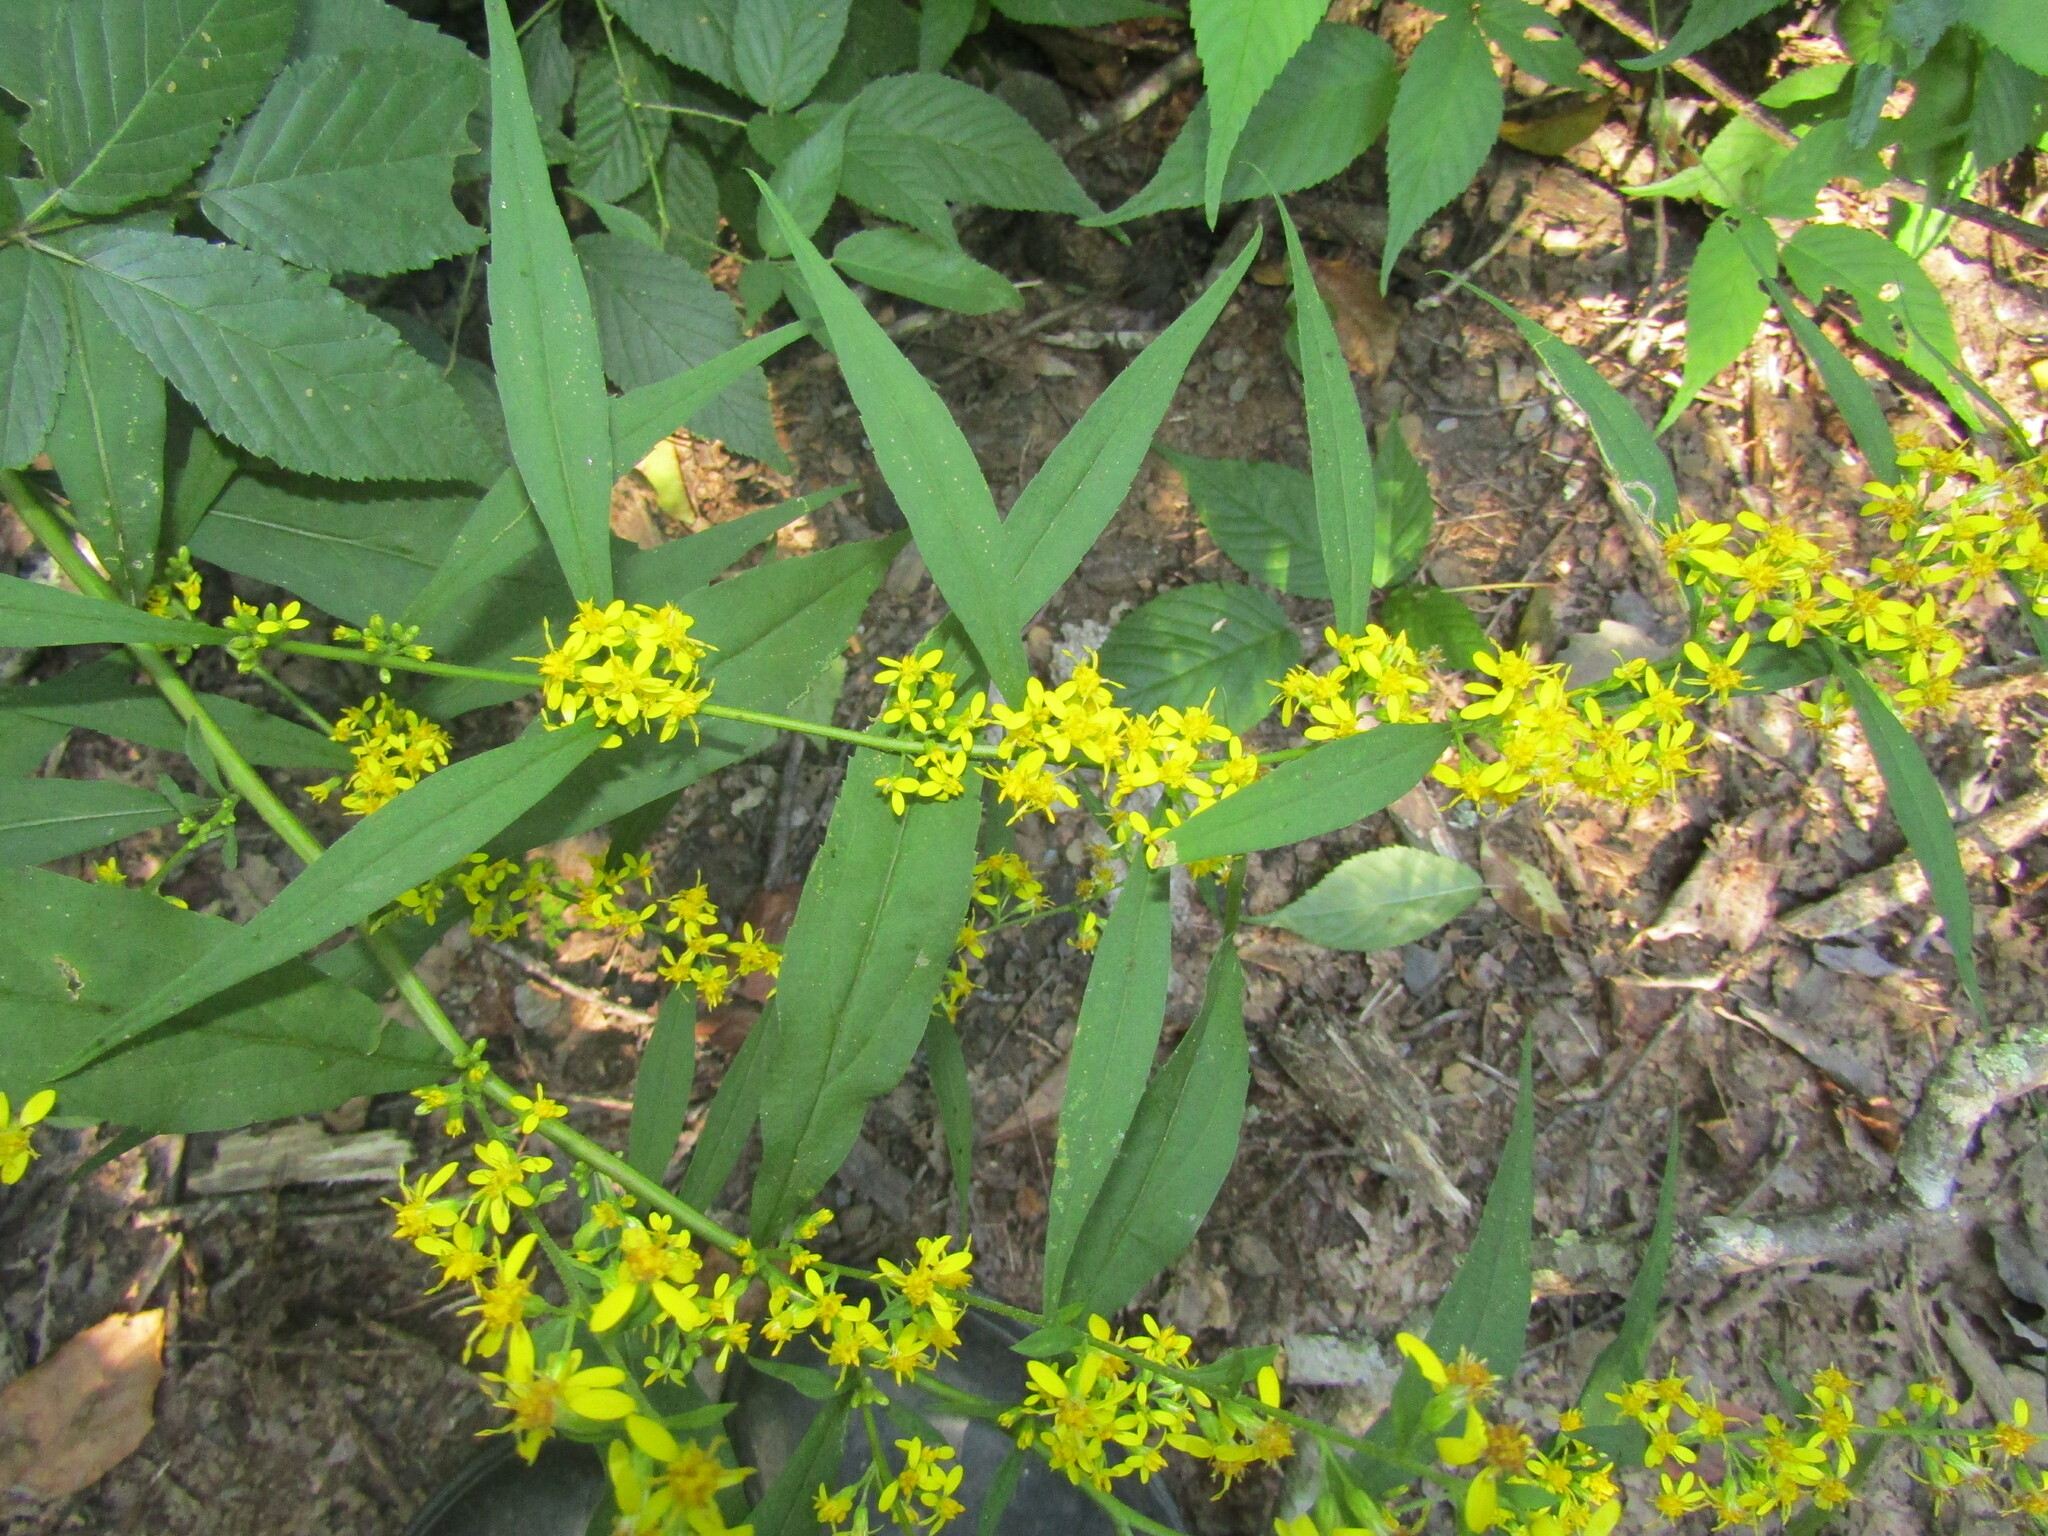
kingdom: Plantae
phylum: Tracheophyta
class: Magnoliopsida
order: Asterales
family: Asteraceae
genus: Solidago
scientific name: Solidago caesia
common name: Woodland goldenrod
